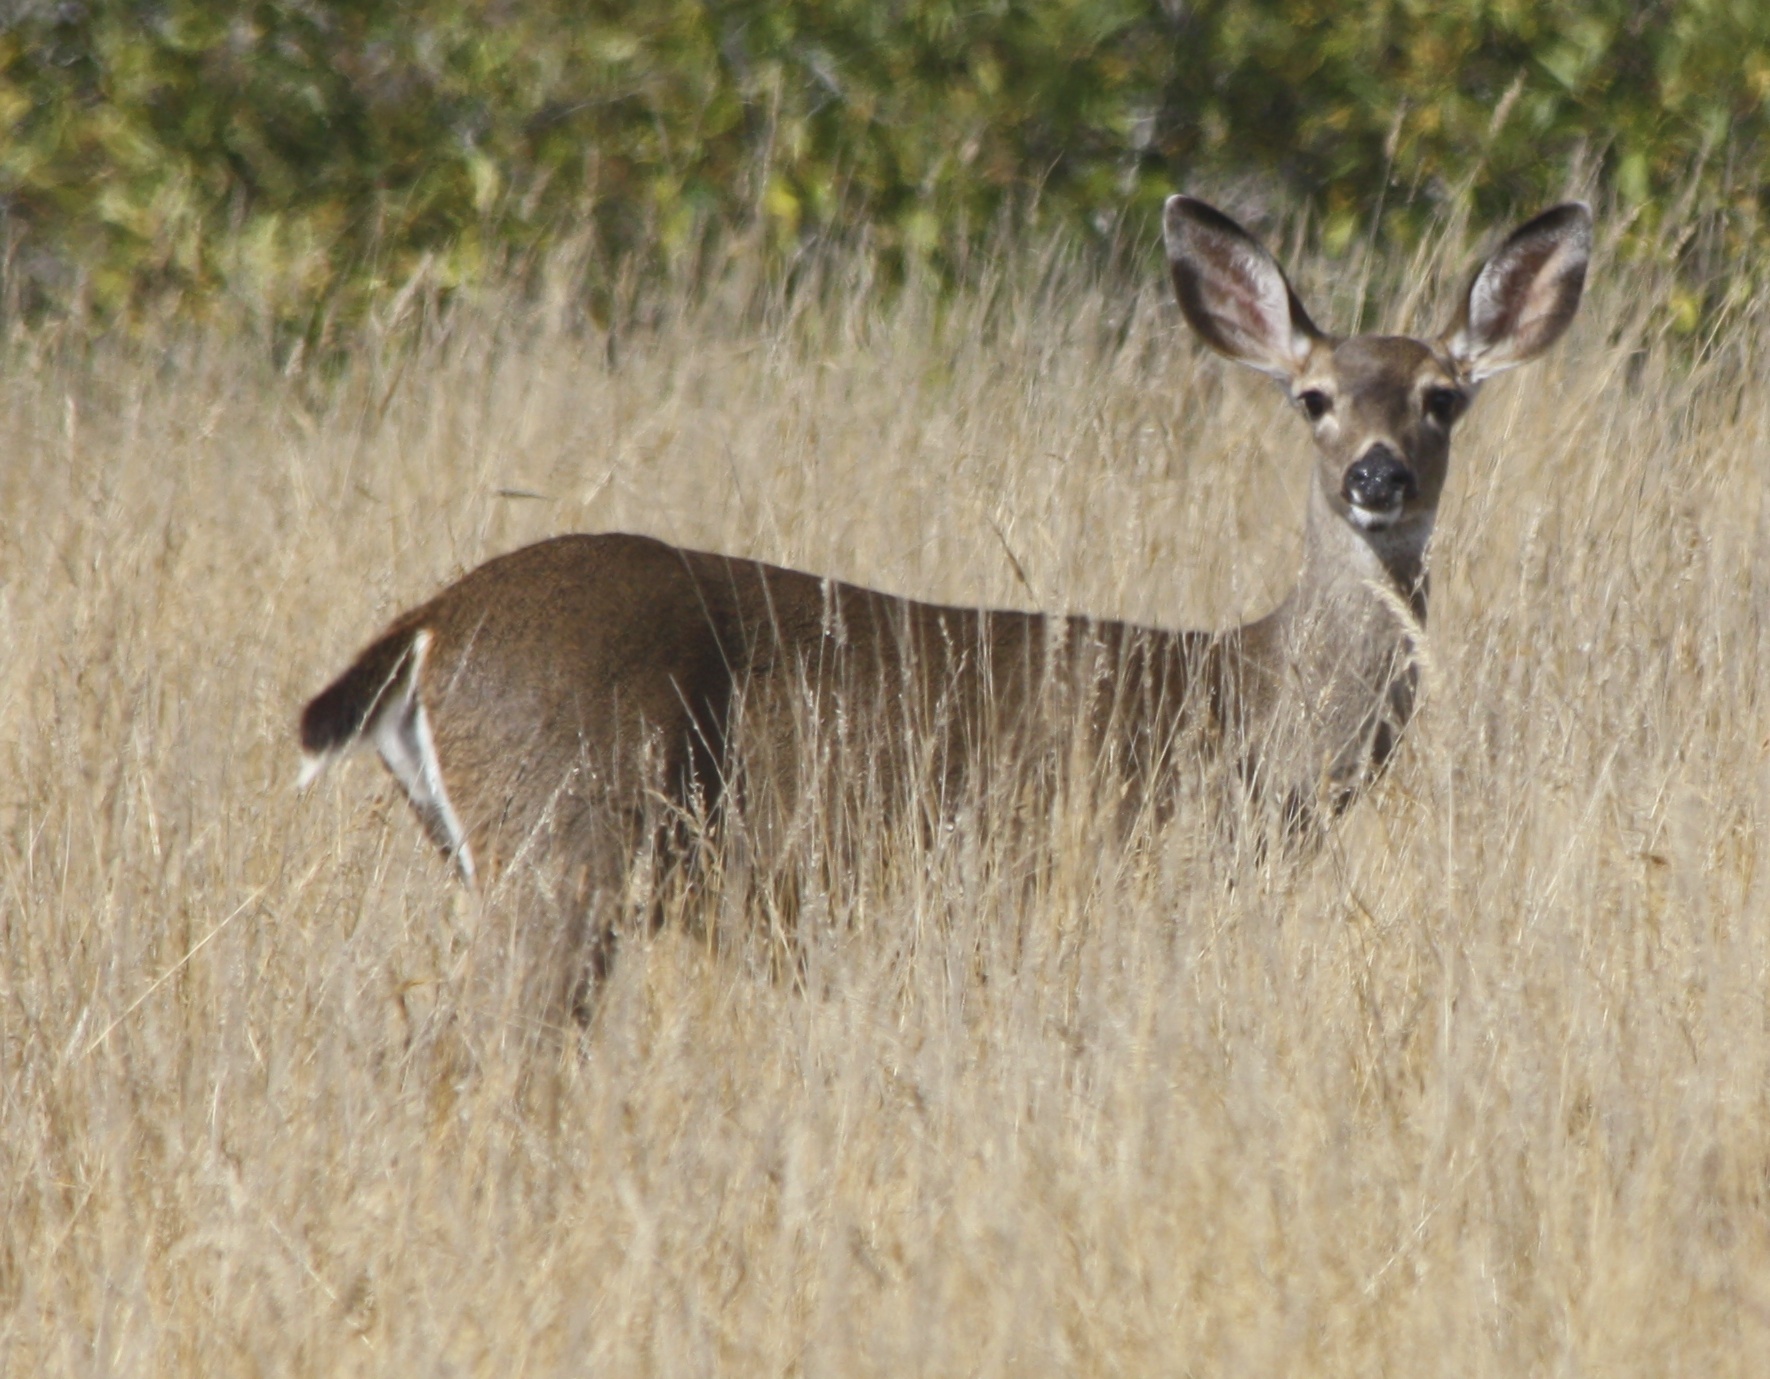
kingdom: Animalia
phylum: Chordata
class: Mammalia
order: Artiodactyla
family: Cervidae
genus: Odocoileus
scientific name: Odocoileus hemionus
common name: Mule deer
